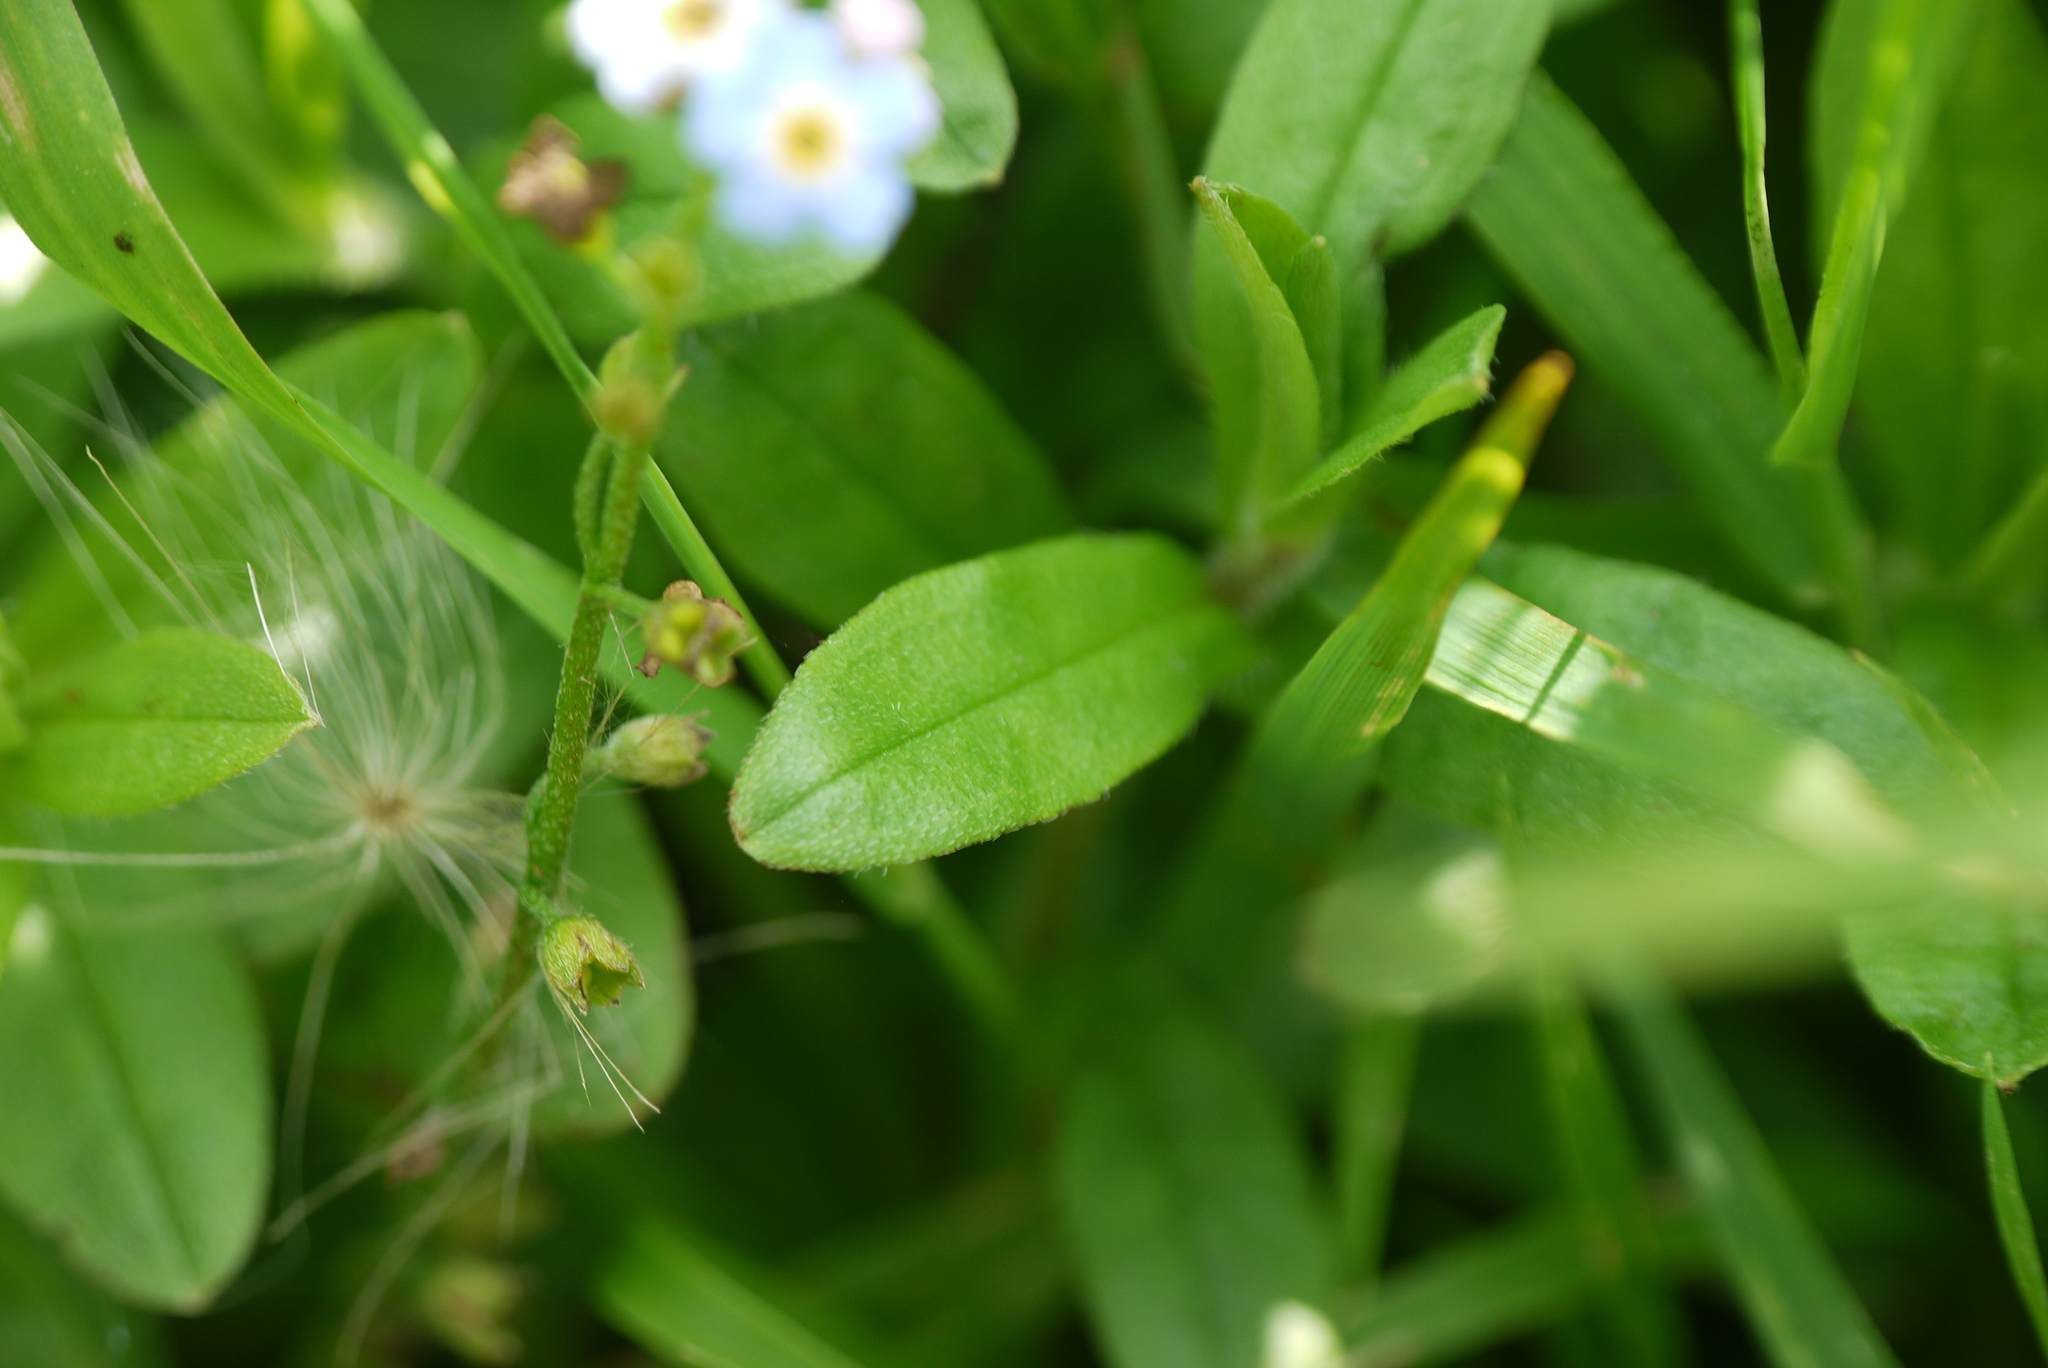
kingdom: Plantae
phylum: Tracheophyta
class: Magnoliopsida
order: Boraginales
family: Boraginaceae
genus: Myosotis
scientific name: Myosotis scorpioides
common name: Water forget-me-not
